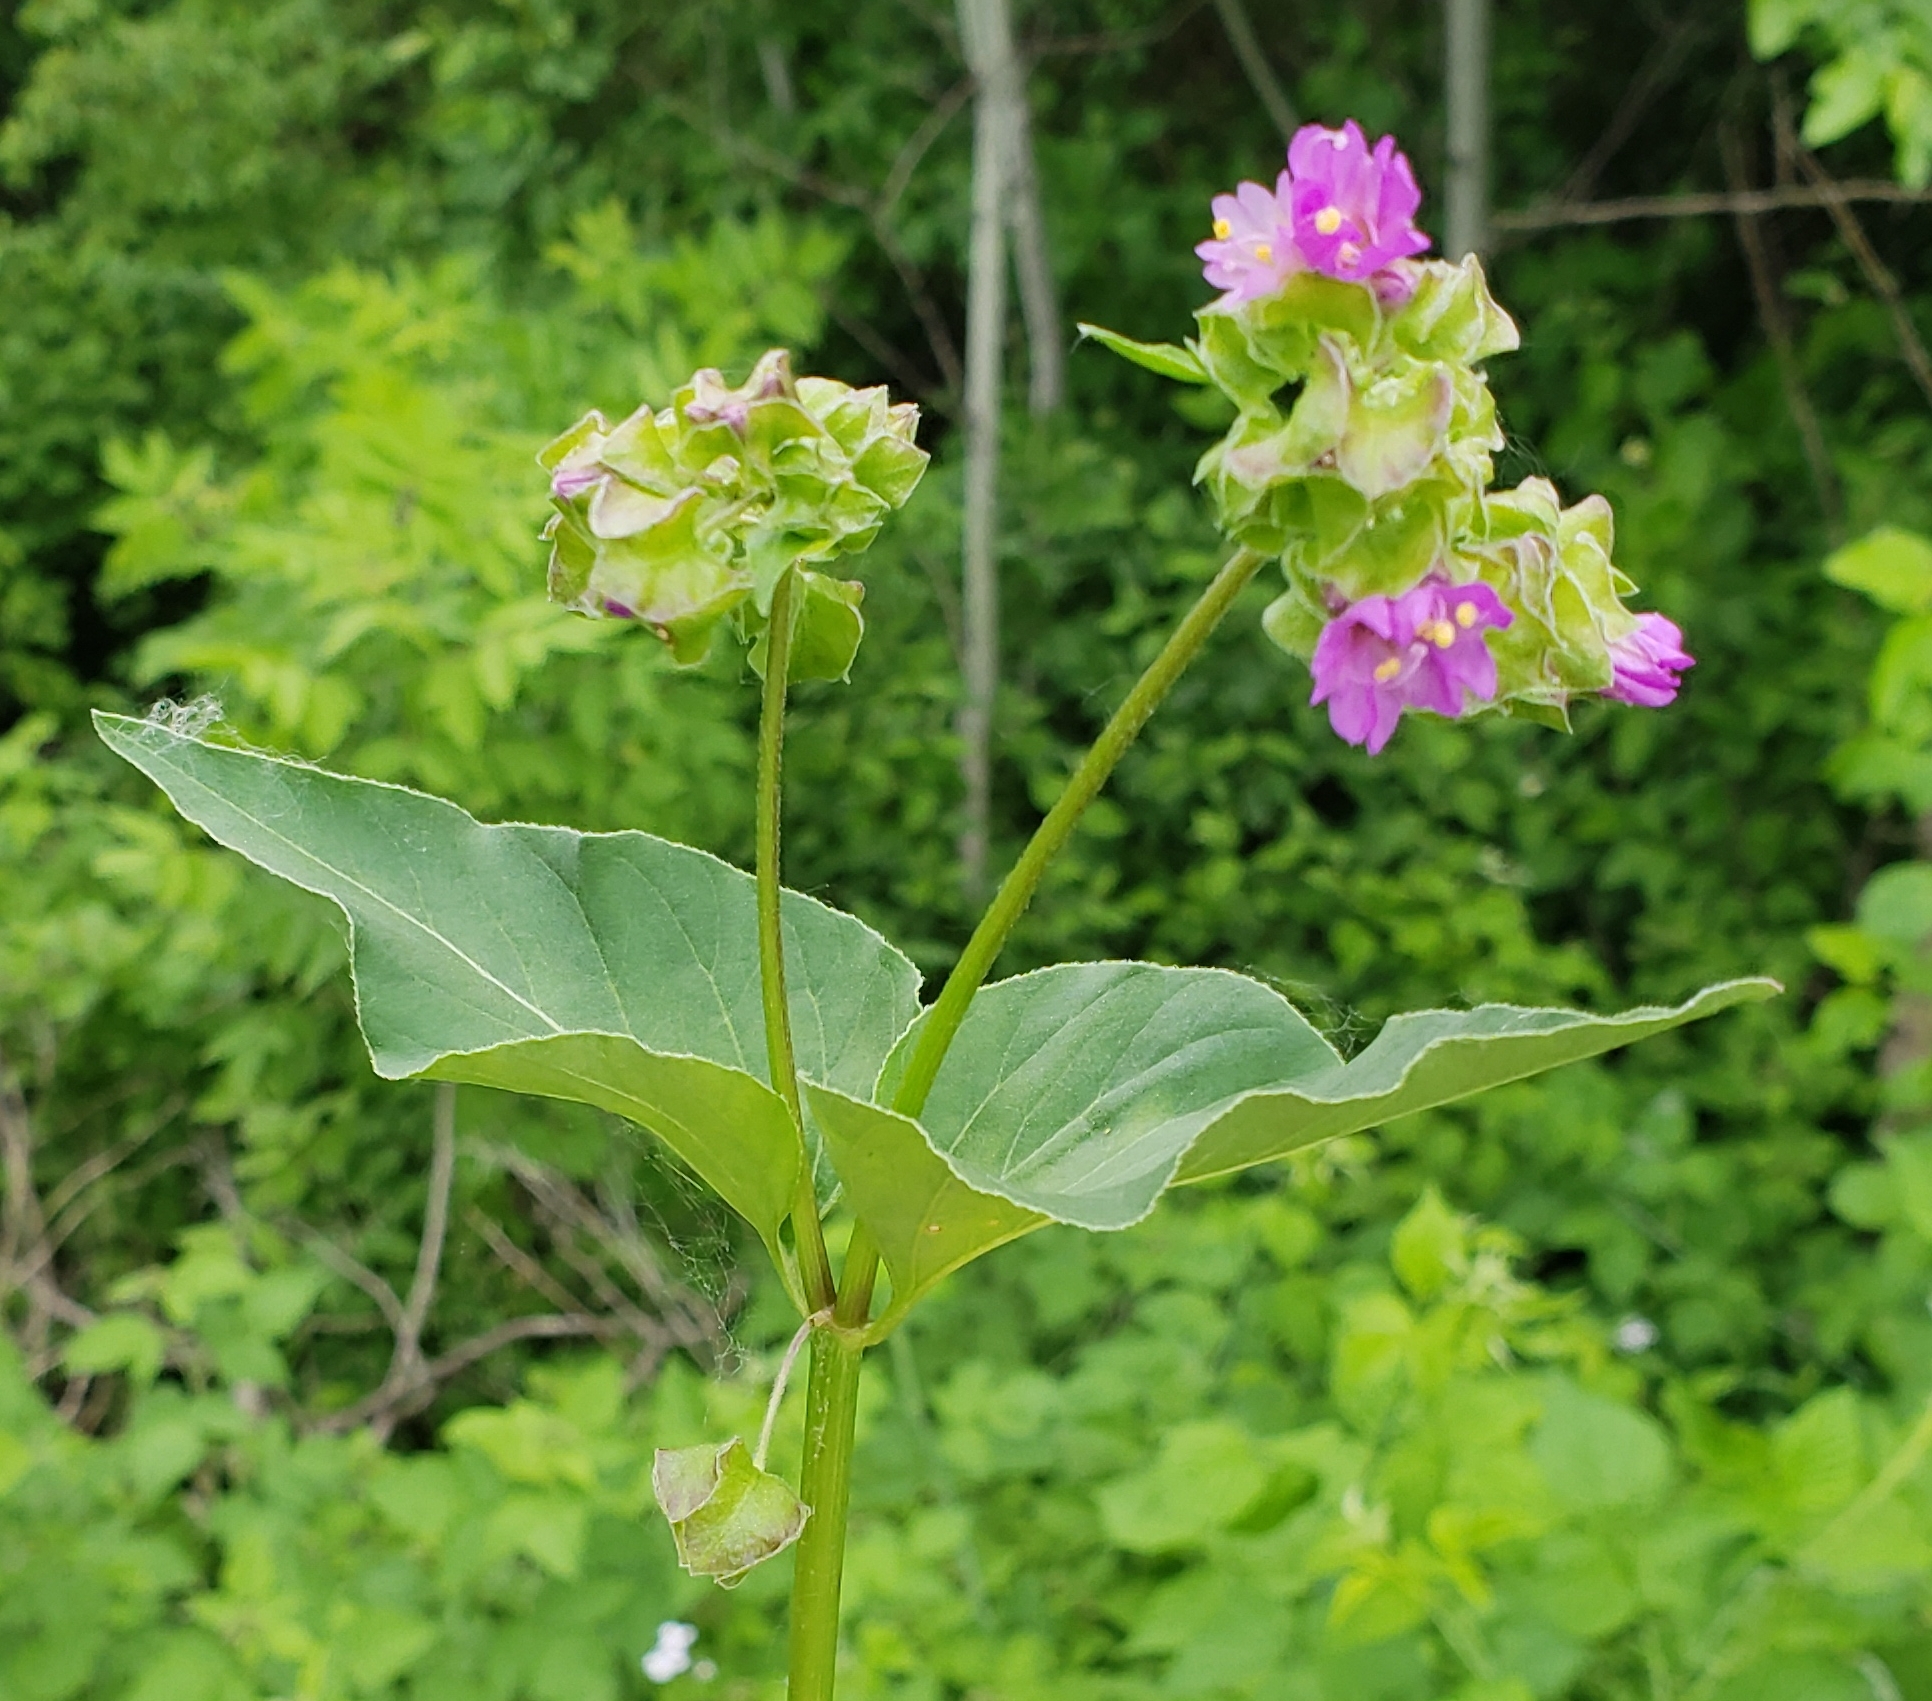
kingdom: Plantae
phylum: Tracheophyta
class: Magnoliopsida
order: Caryophyllales
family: Nyctaginaceae
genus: Mirabilis
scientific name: Mirabilis nyctaginea
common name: Umbrella wort
